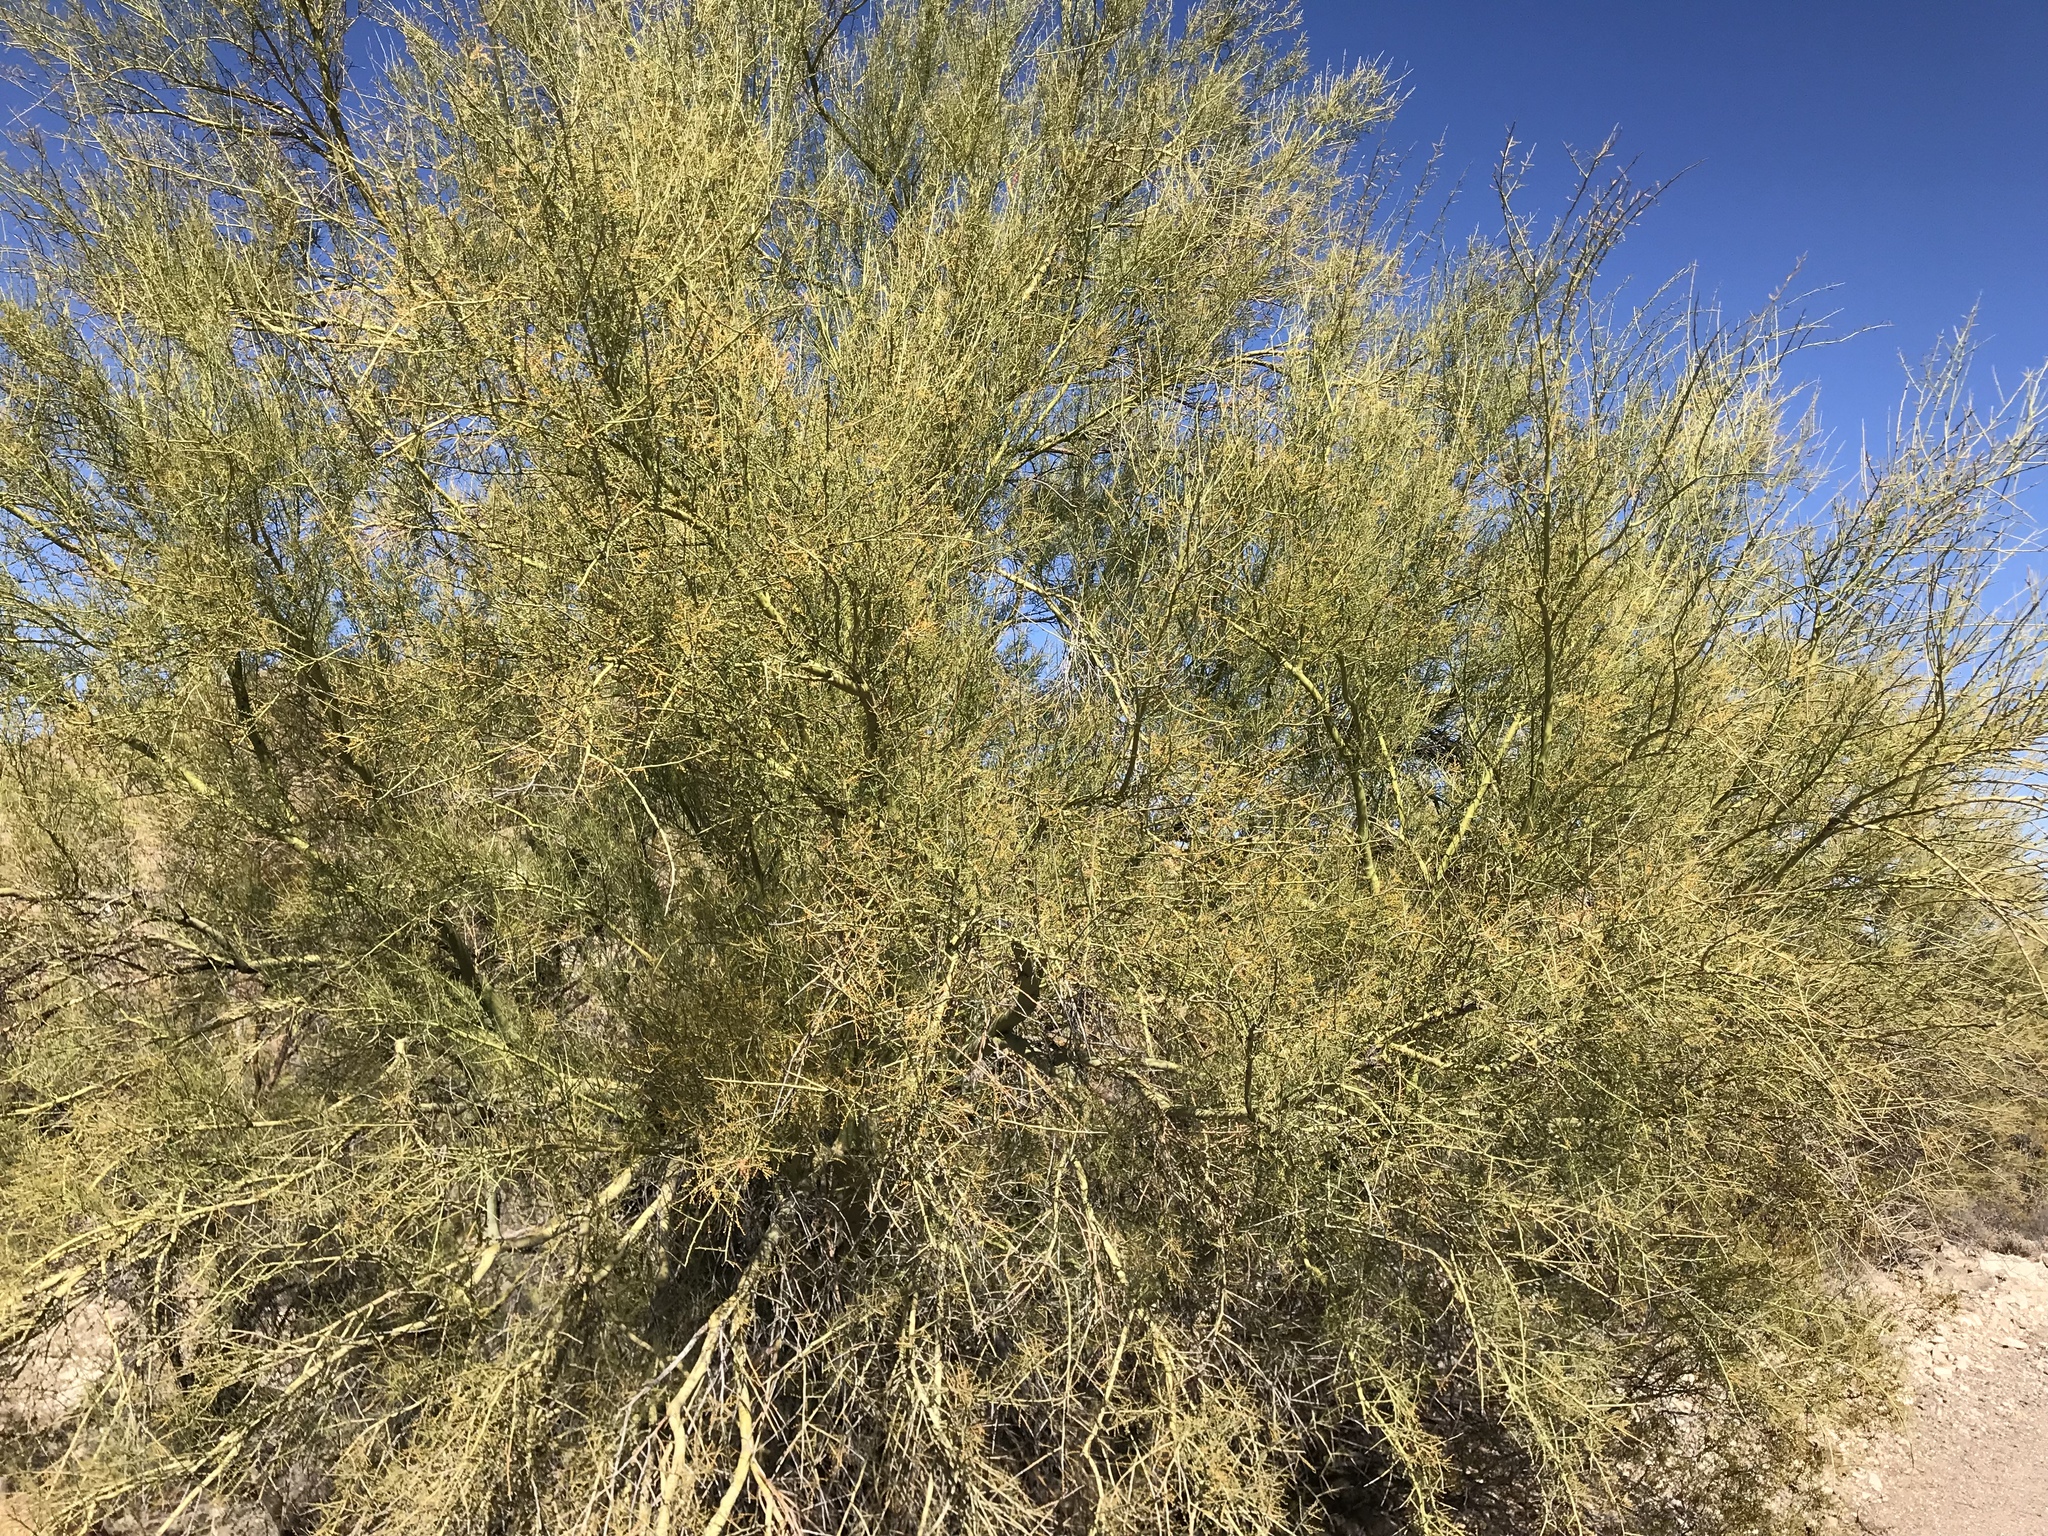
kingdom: Plantae
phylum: Tracheophyta
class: Magnoliopsida
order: Fabales
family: Fabaceae
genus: Parkinsonia
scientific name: Parkinsonia microphylla
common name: Yellow paloverde
